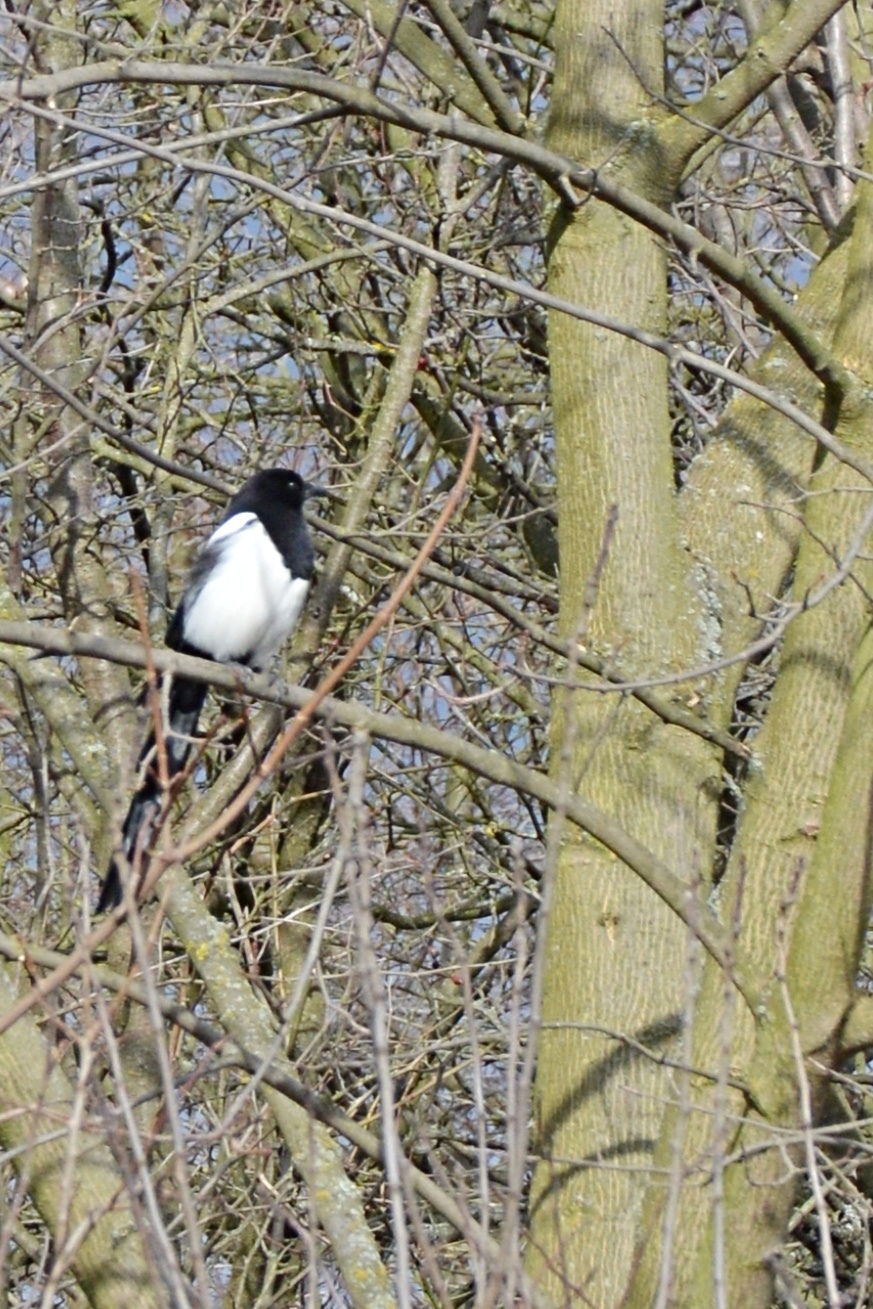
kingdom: Animalia
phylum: Chordata
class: Aves
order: Passeriformes
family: Corvidae
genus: Pica
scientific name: Pica pica
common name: Eurasian magpie
